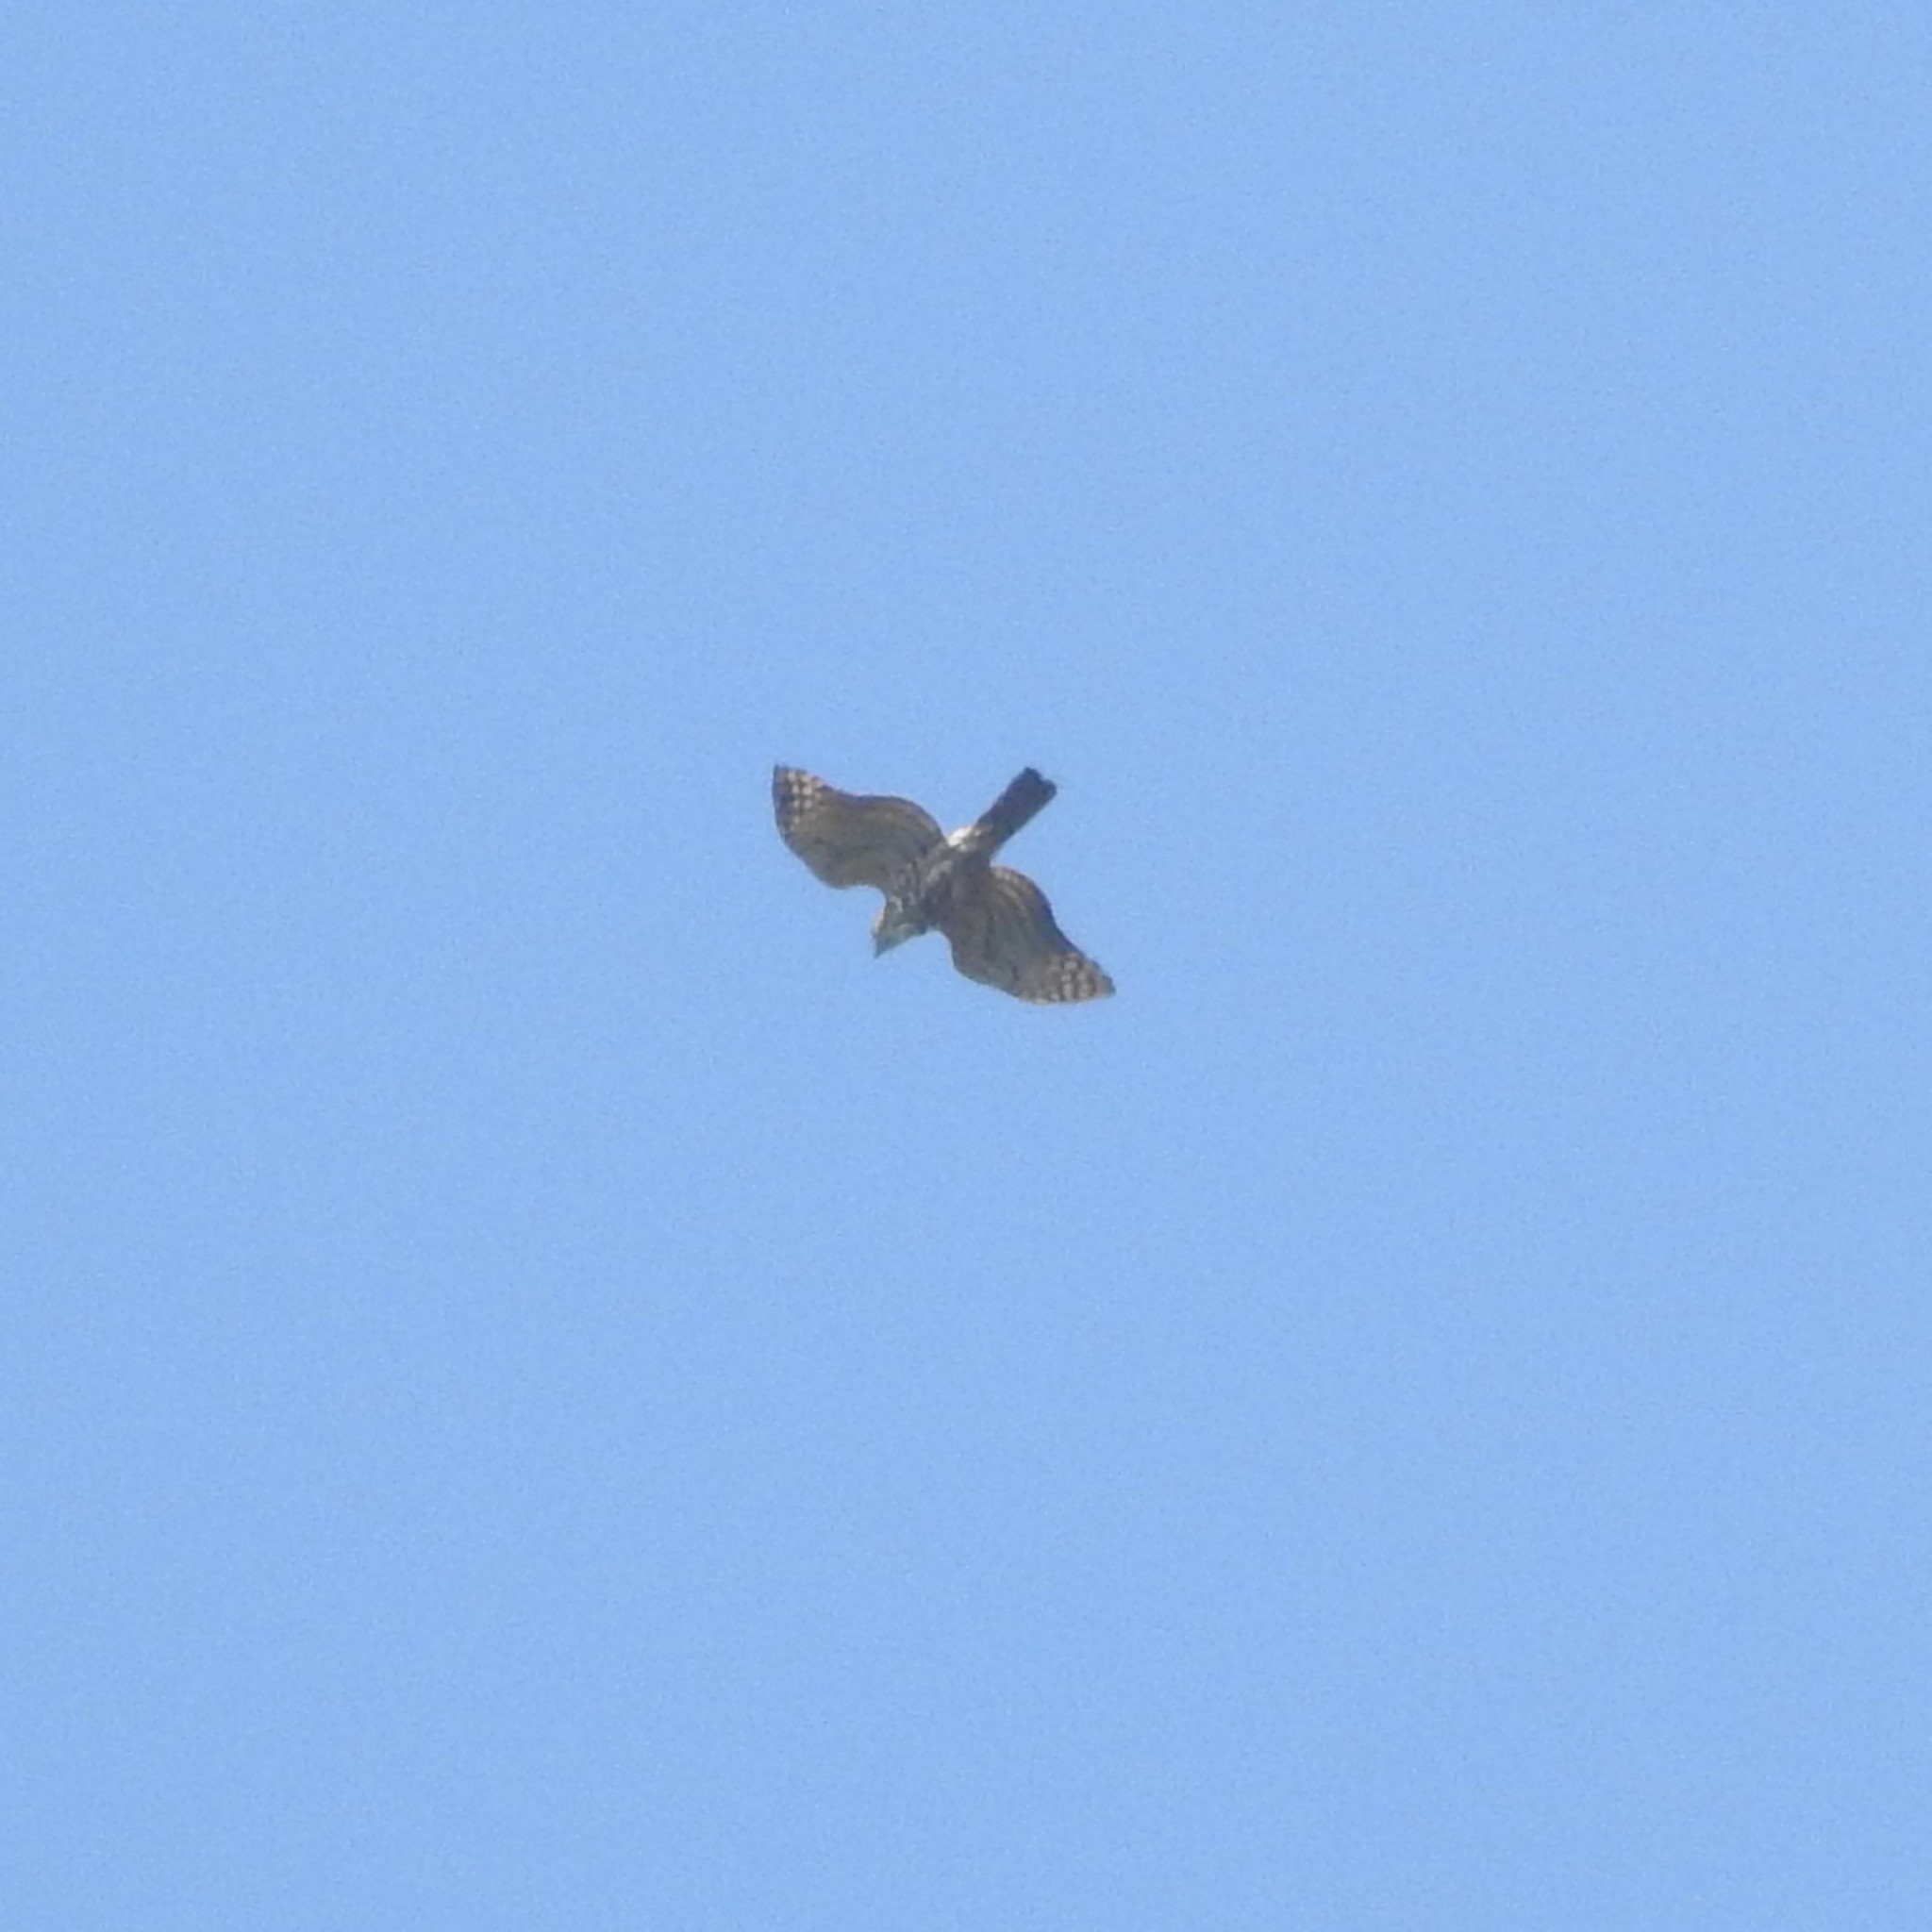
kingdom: Animalia
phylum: Chordata
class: Aves
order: Accipitriformes
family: Accipitridae
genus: Accipiter
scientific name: Accipiter trivirgatus
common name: Crested goshawk
